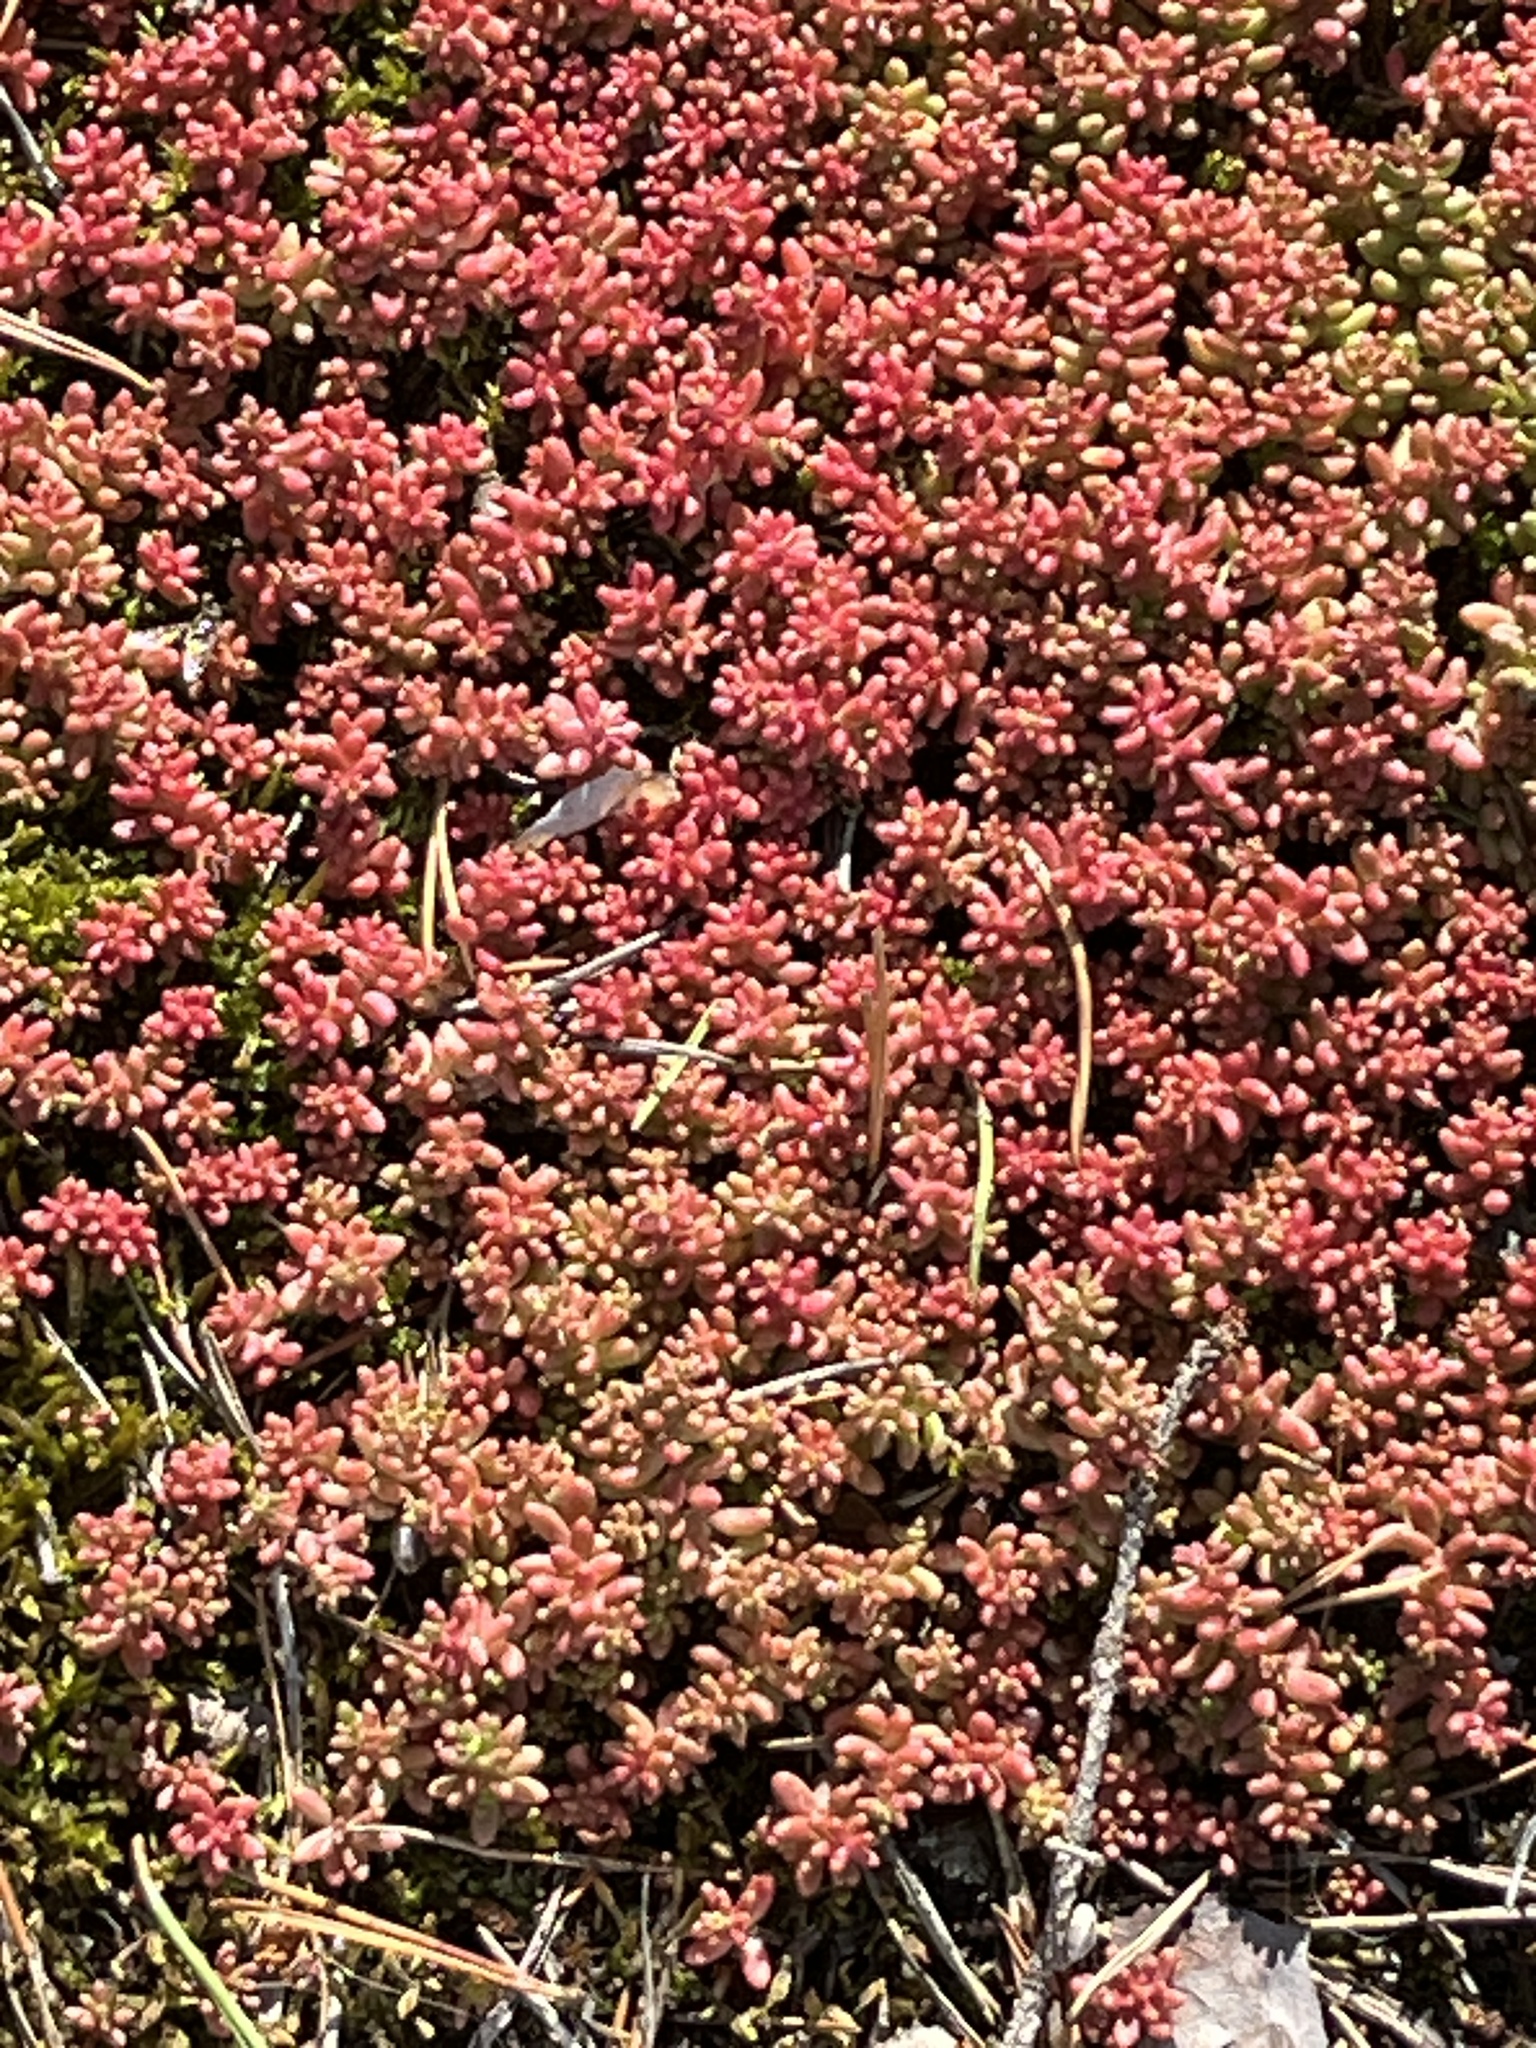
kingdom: Plantae
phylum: Tracheophyta
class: Magnoliopsida
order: Saxifragales
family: Crassulaceae
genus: Sedum
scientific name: Sedum album
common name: White stonecrop
